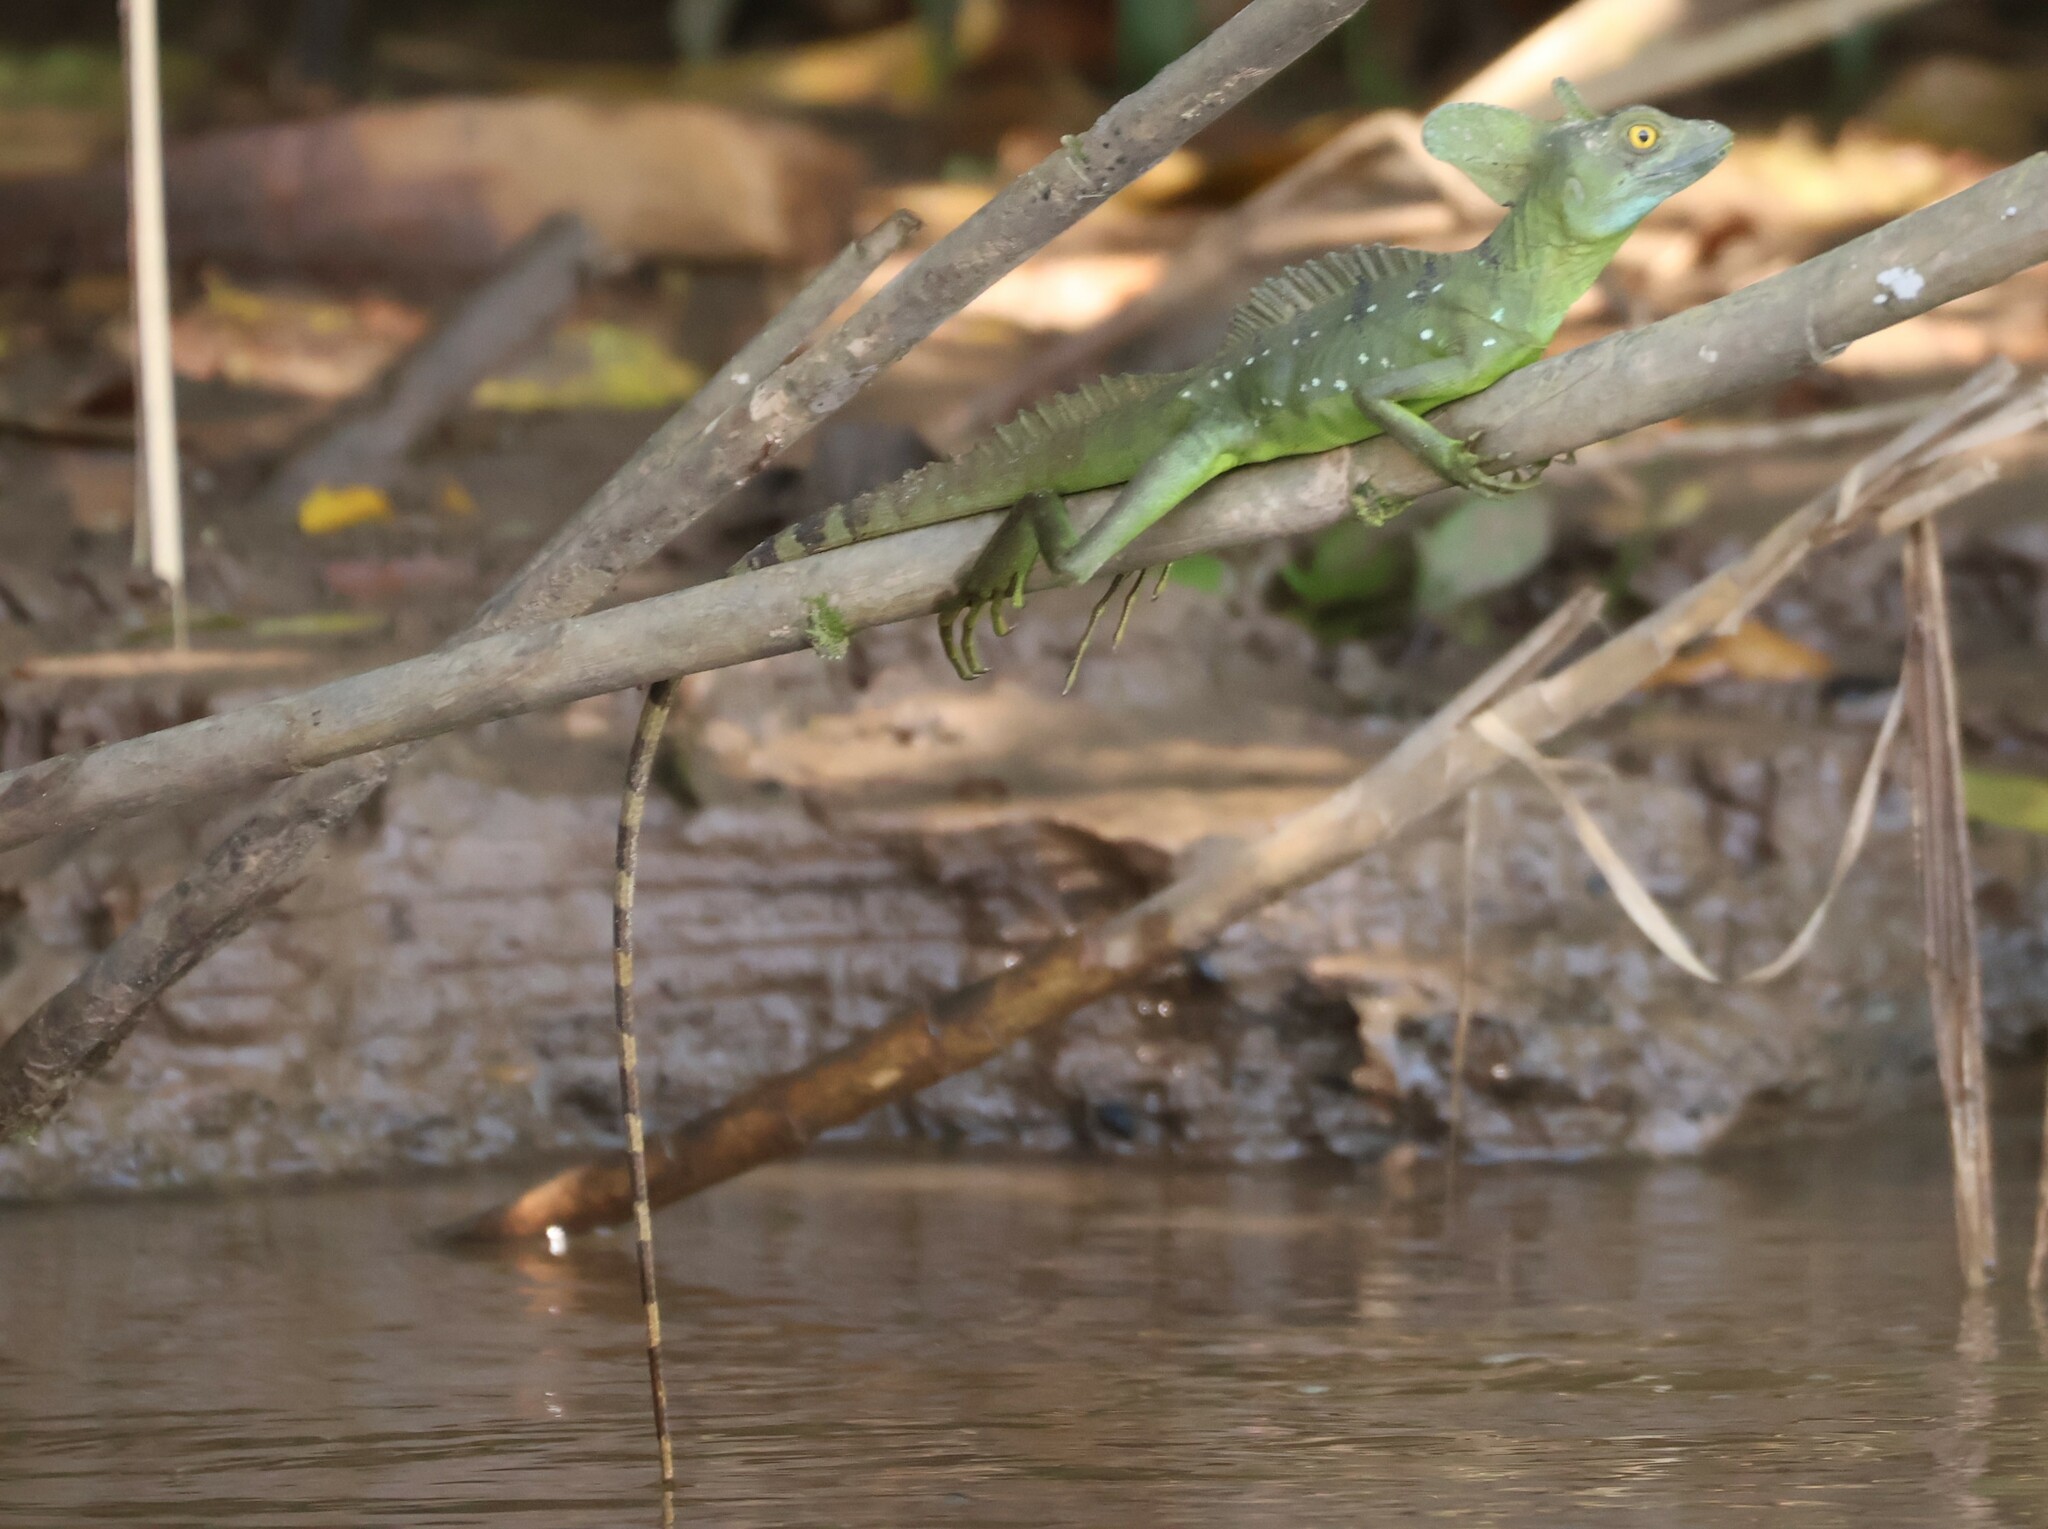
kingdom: Animalia
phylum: Chordata
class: Squamata
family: Corytophanidae
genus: Basiliscus
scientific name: Basiliscus plumifrons
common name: Green basilisk
